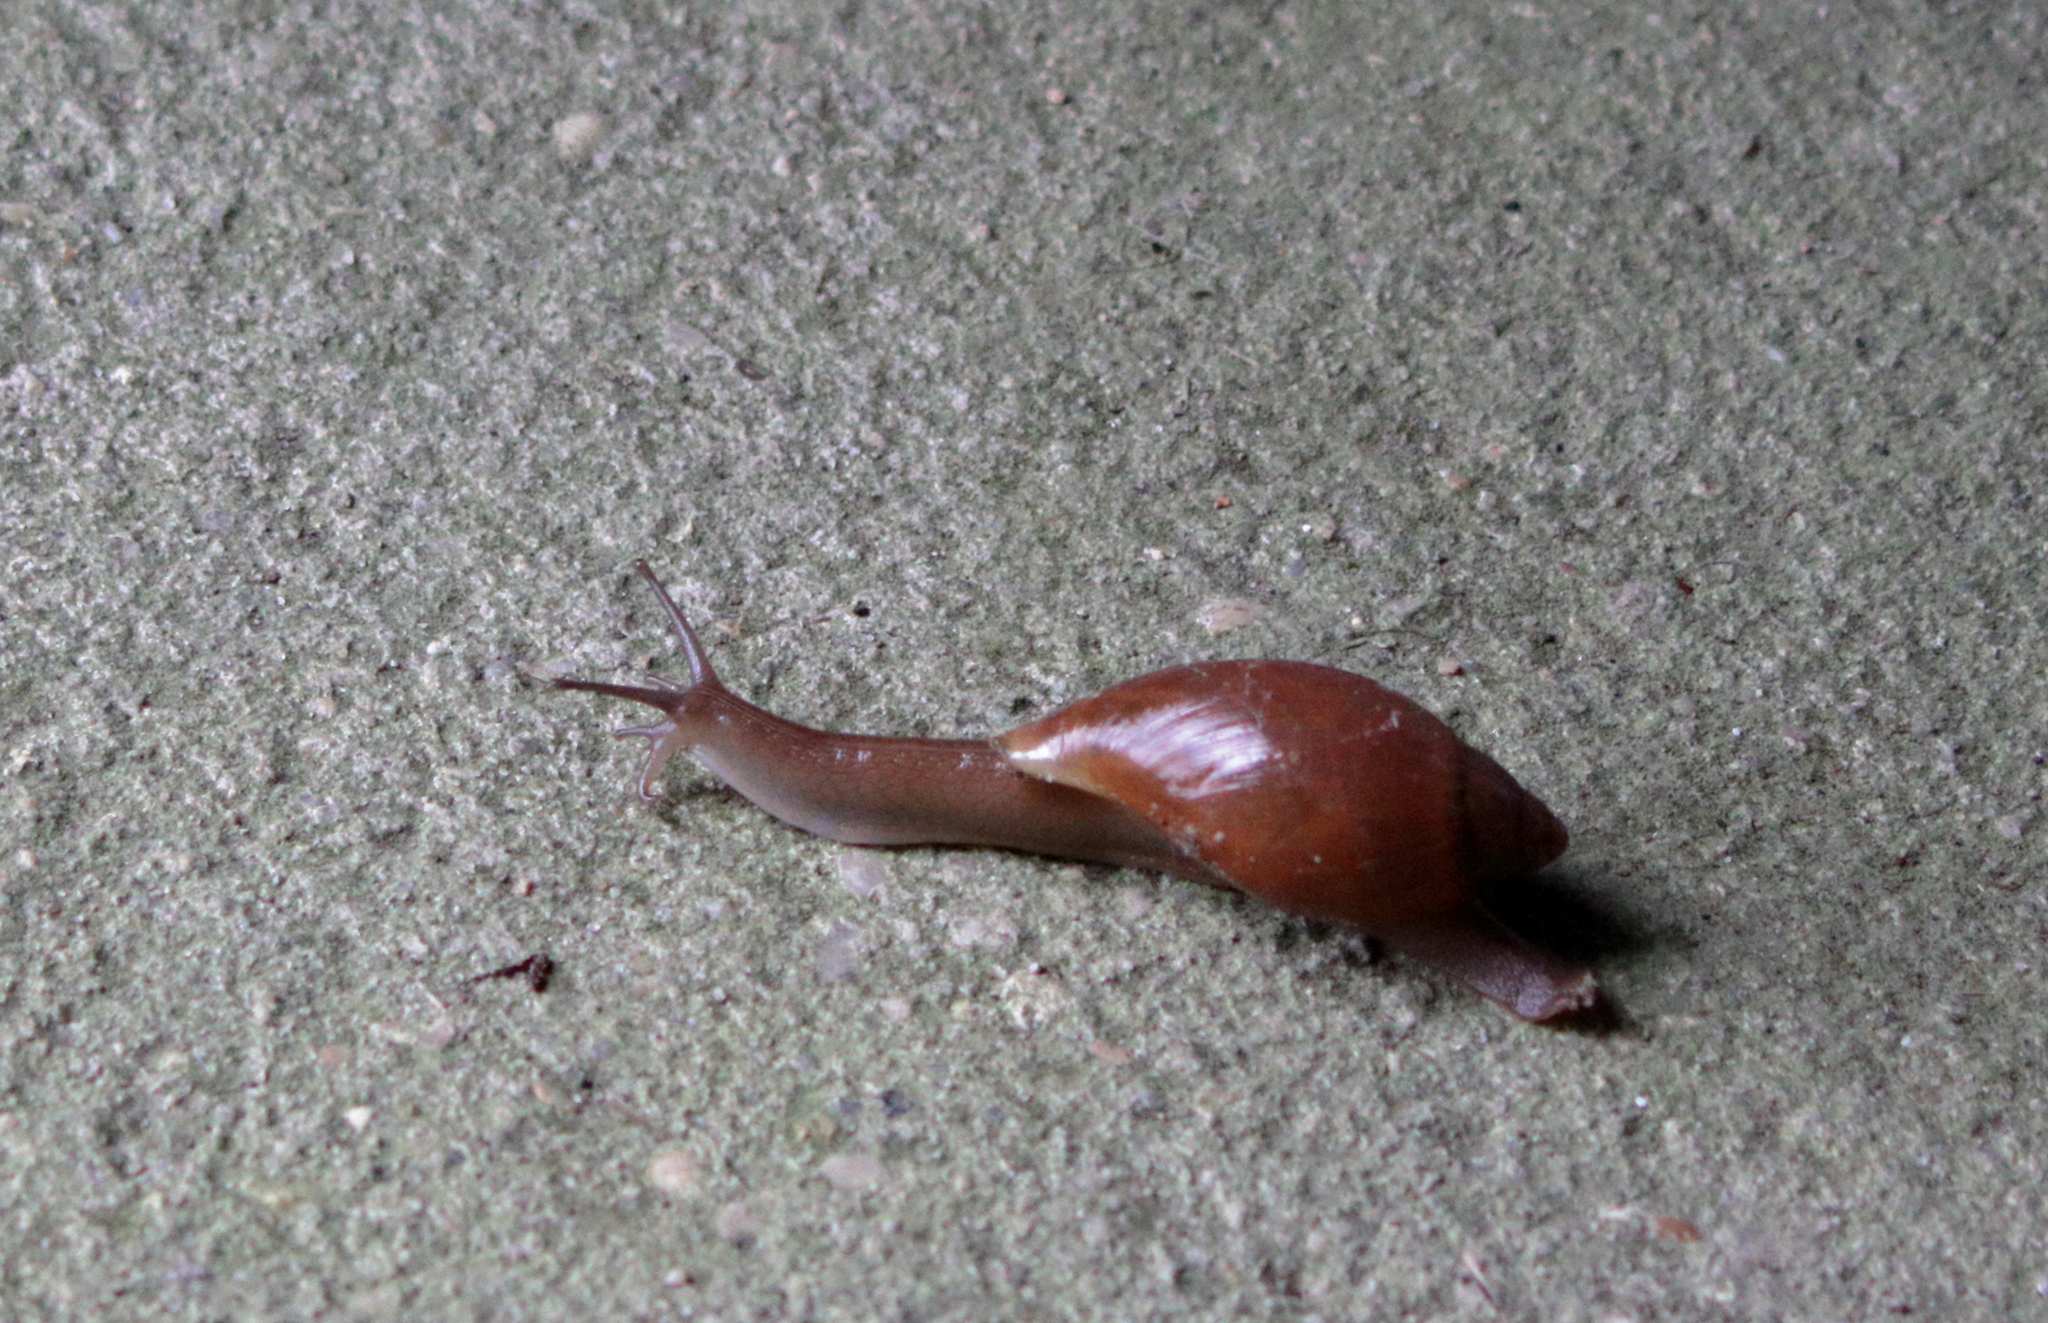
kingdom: Animalia
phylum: Mollusca
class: Gastropoda
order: Stylommatophora
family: Spiraxidae
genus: Euglandina
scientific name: Euglandina rosea
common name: Rosy wolfsnail
